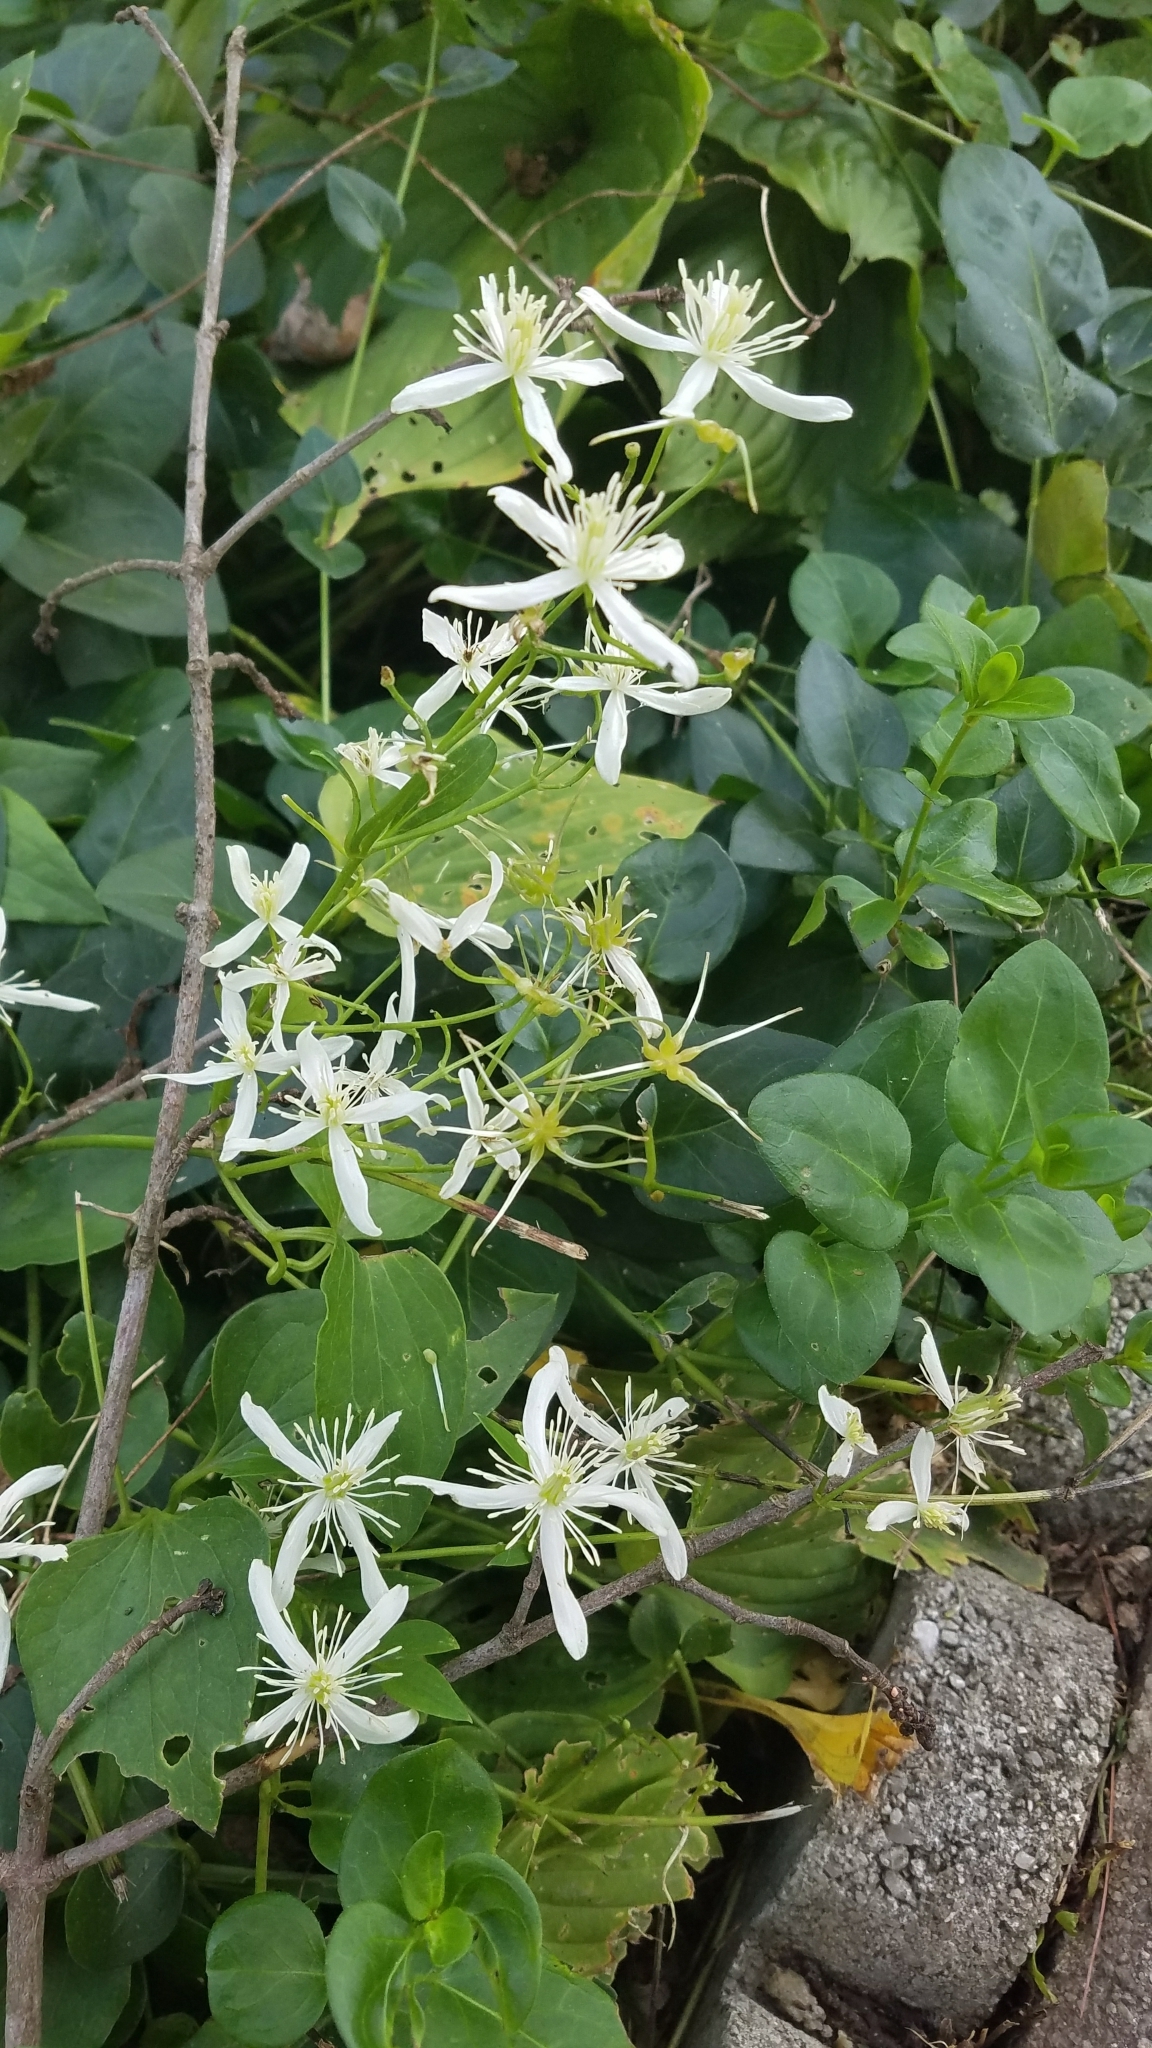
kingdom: Plantae
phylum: Tracheophyta
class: Magnoliopsida
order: Ranunculales
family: Ranunculaceae
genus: Clematis
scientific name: Clematis terniflora
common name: Sweet autumn clematis
